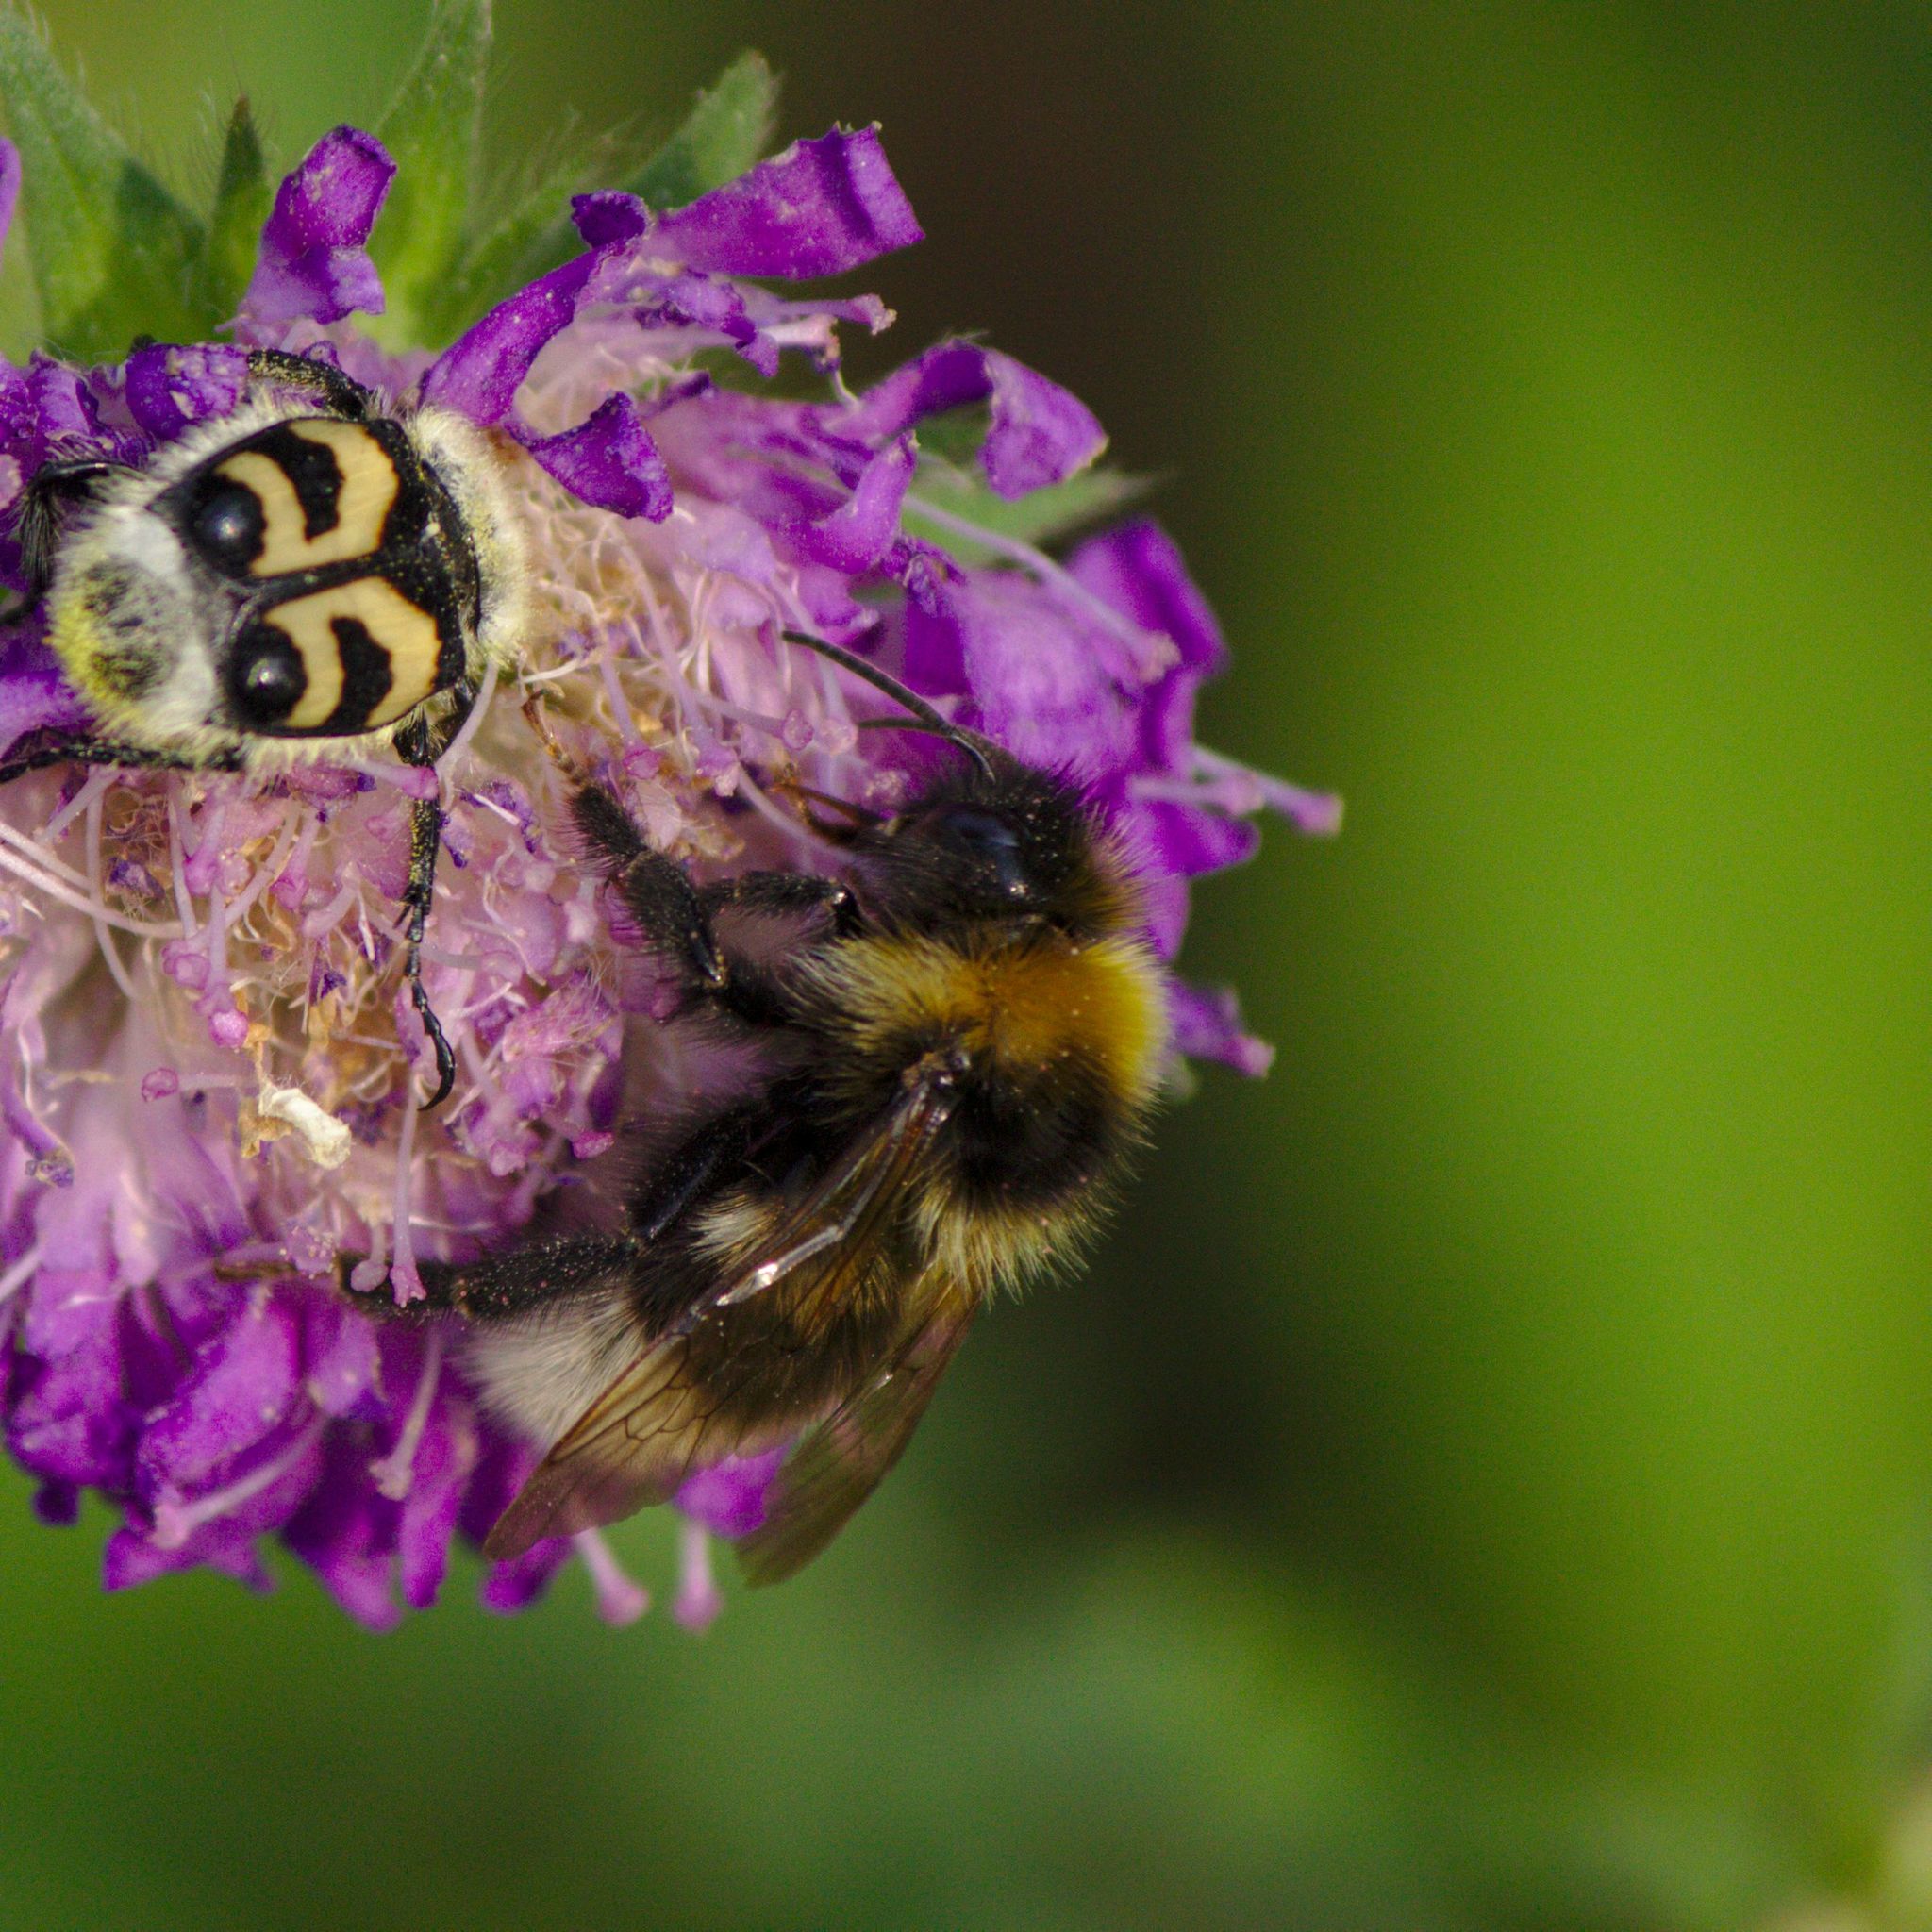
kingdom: Animalia
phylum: Arthropoda
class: Insecta
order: Hymenoptera
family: Apidae
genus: Bombus
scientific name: Bombus
